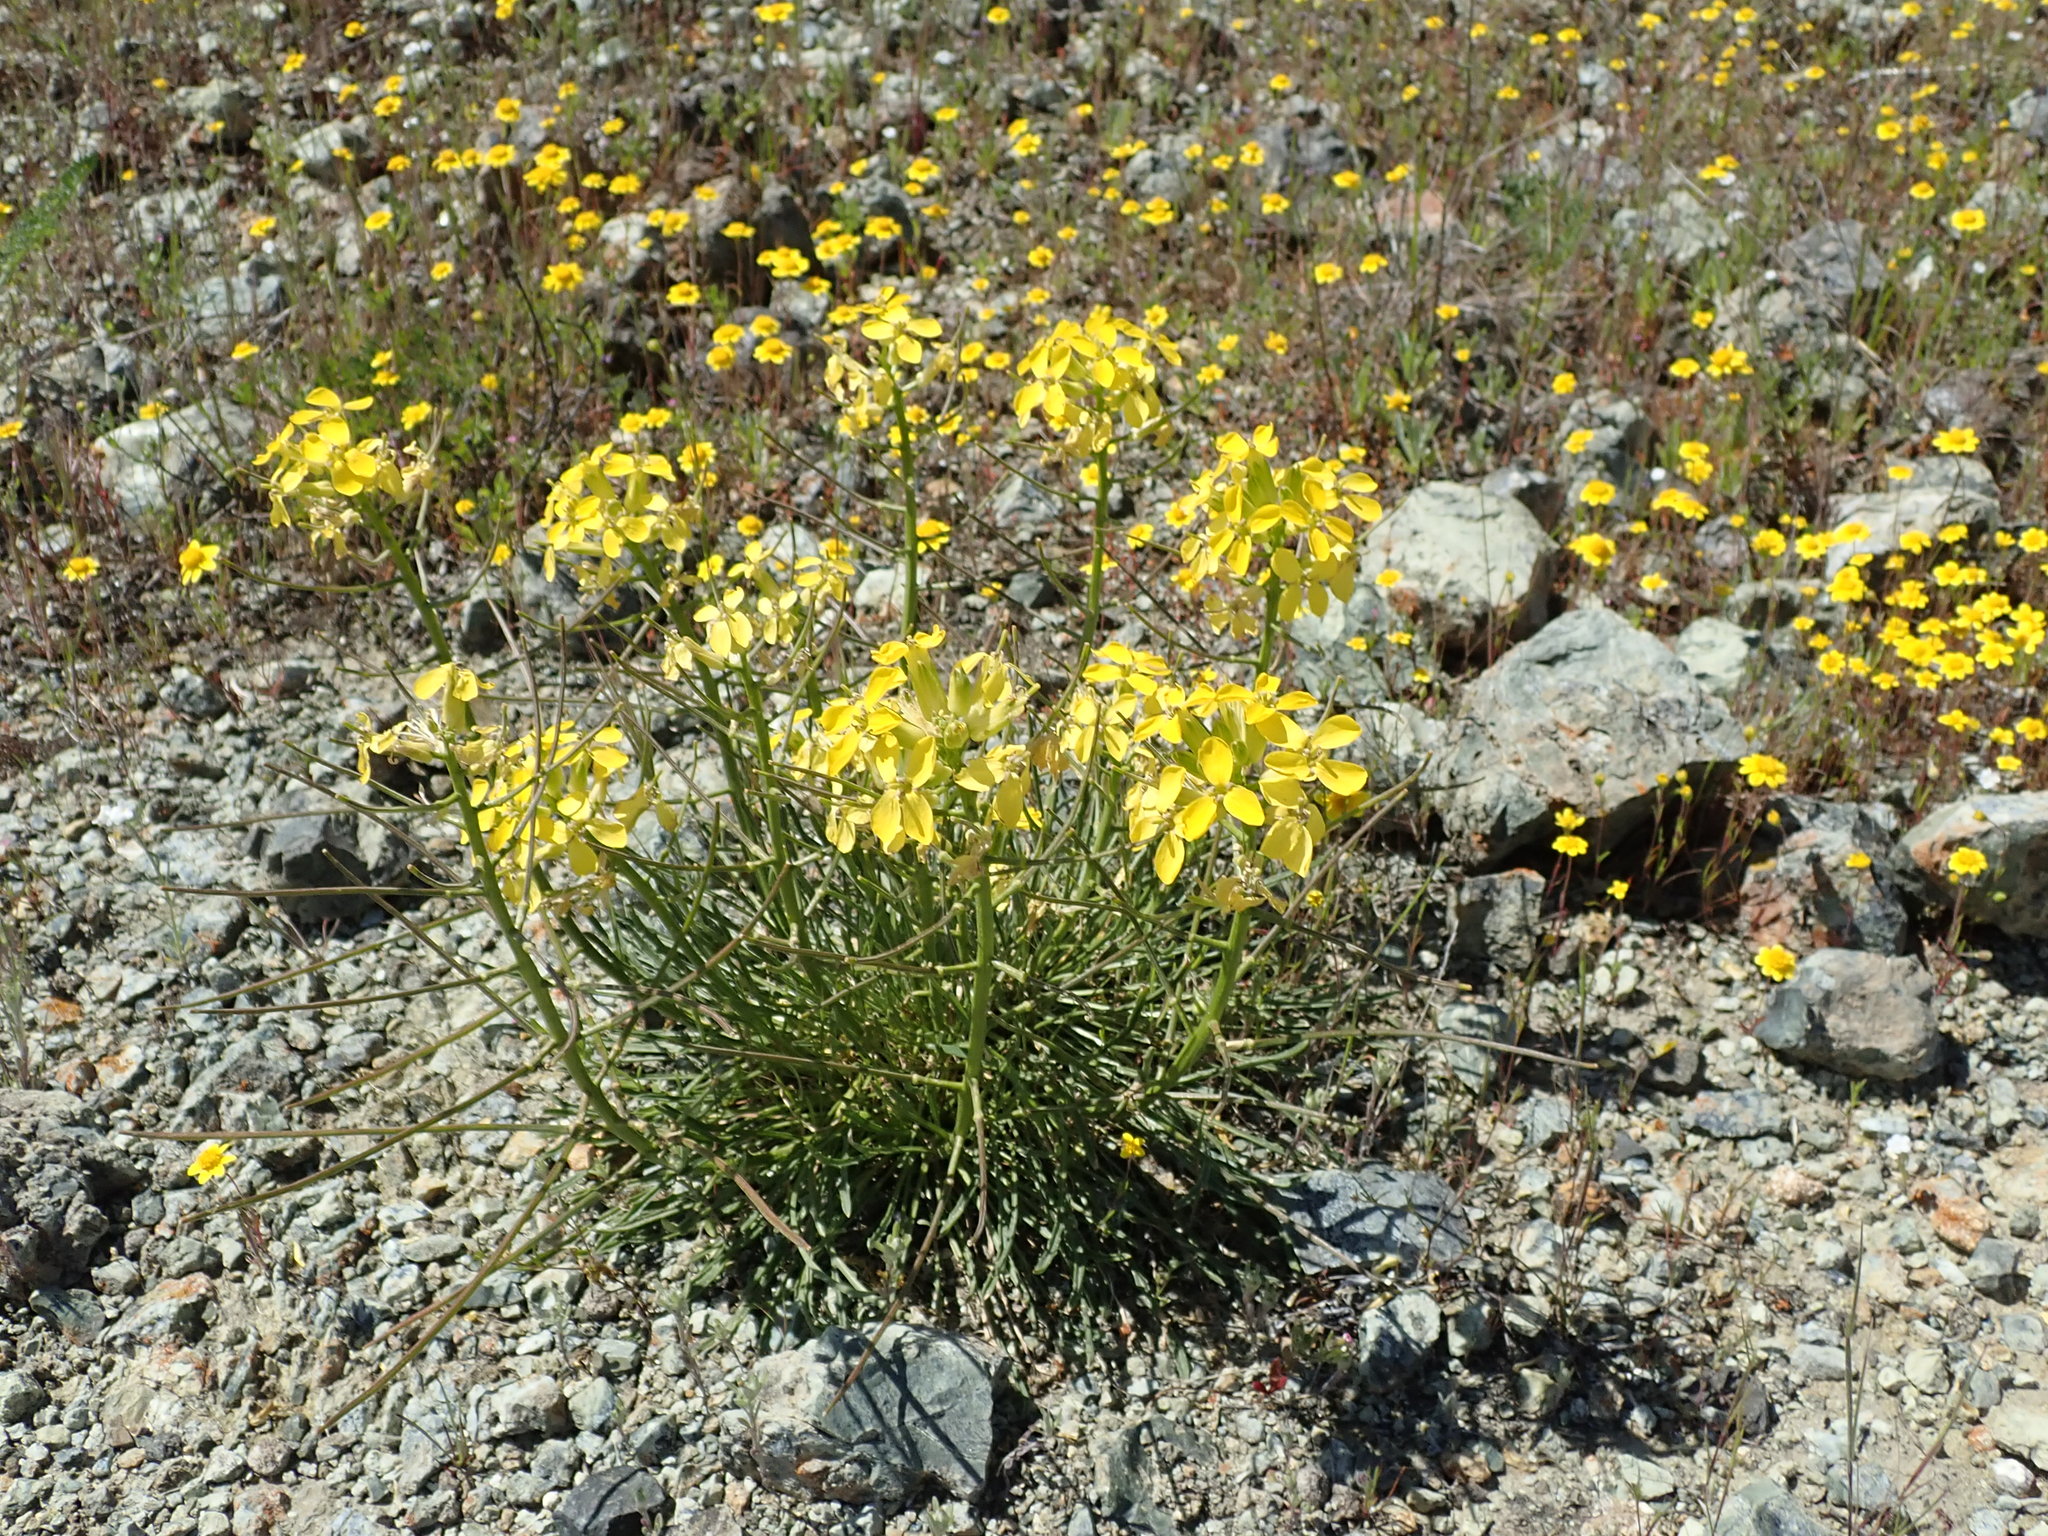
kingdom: Plantae
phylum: Tracheophyta
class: Magnoliopsida
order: Brassicales
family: Brassicaceae
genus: Erysimum
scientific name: Erysimum franciscanum
